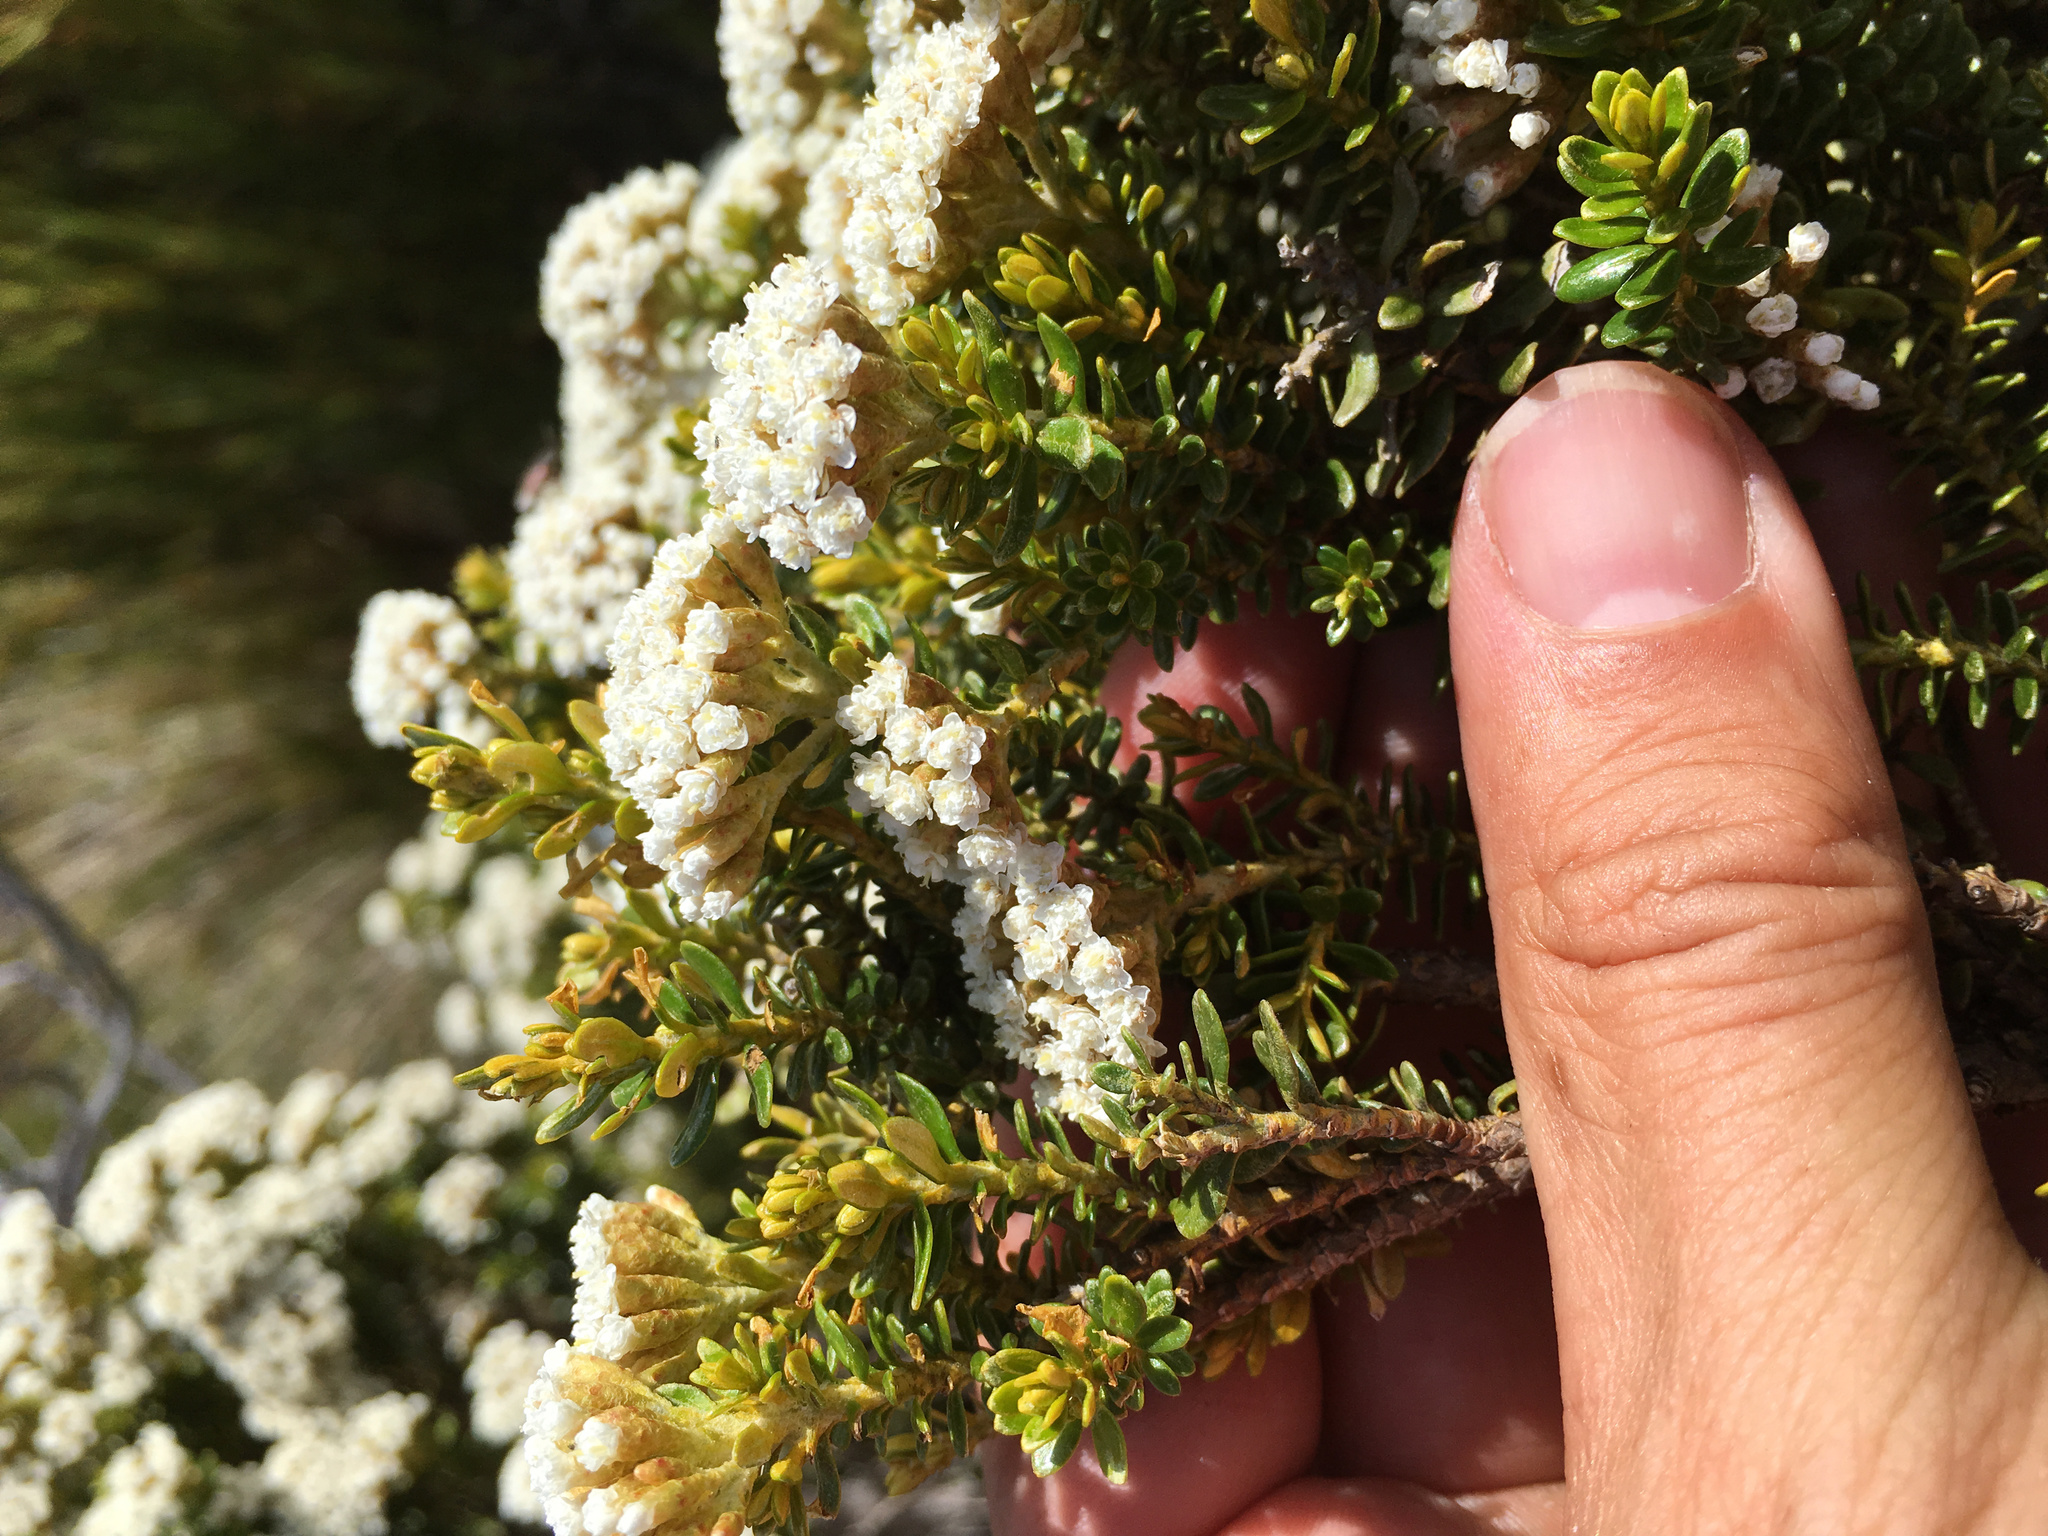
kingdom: Plantae
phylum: Tracheophyta
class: Magnoliopsida
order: Asterales
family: Asteraceae
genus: Ozothamnus
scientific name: Ozothamnus leptophyllus
